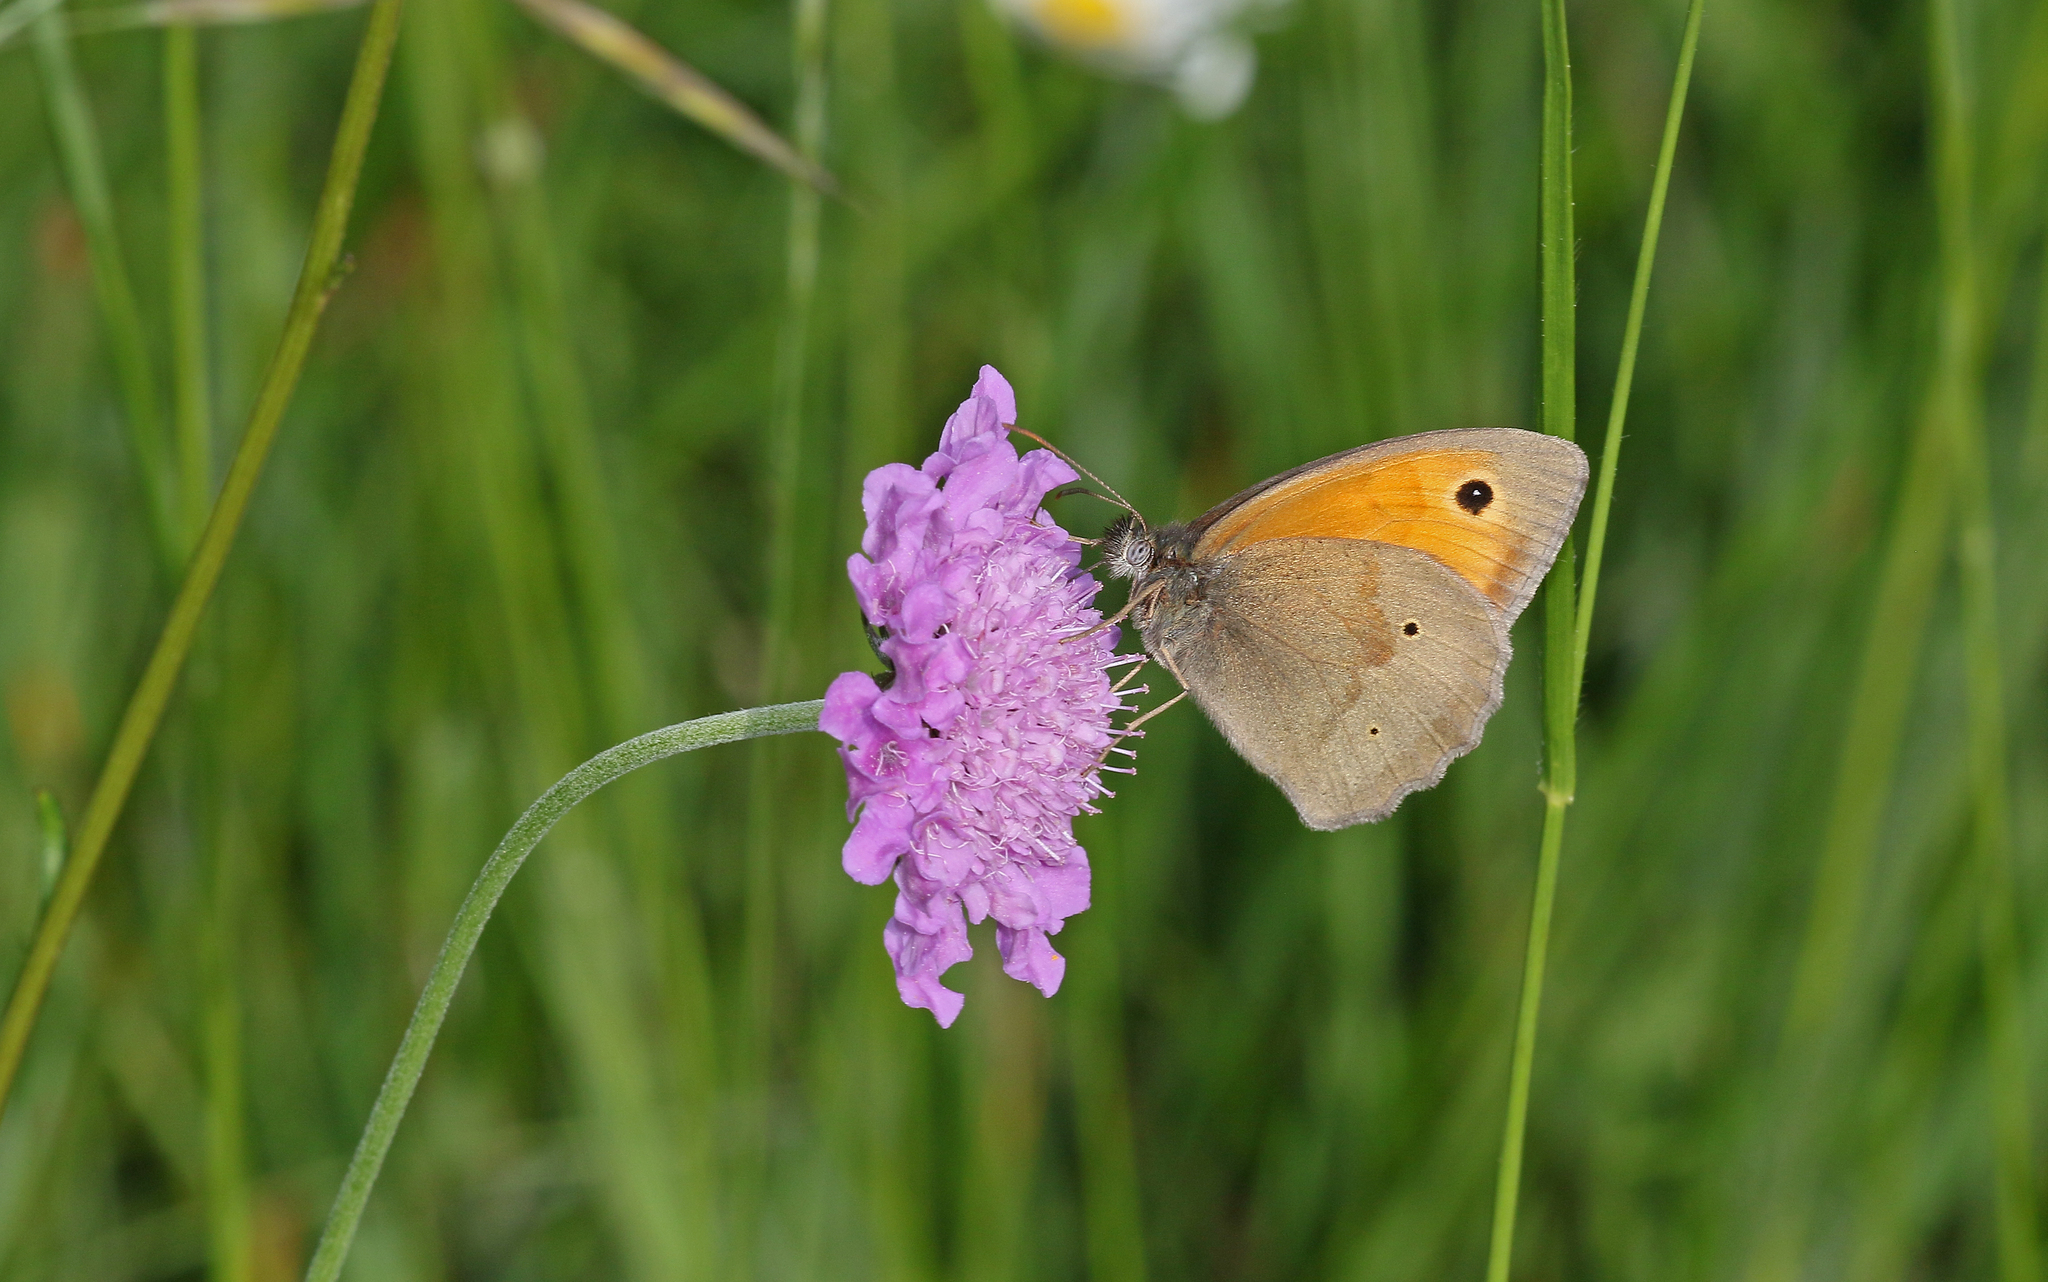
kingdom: Animalia
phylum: Arthropoda
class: Insecta
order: Lepidoptera
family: Nymphalidae
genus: Maniola
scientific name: Maniola jurtina
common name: Meadow brown
